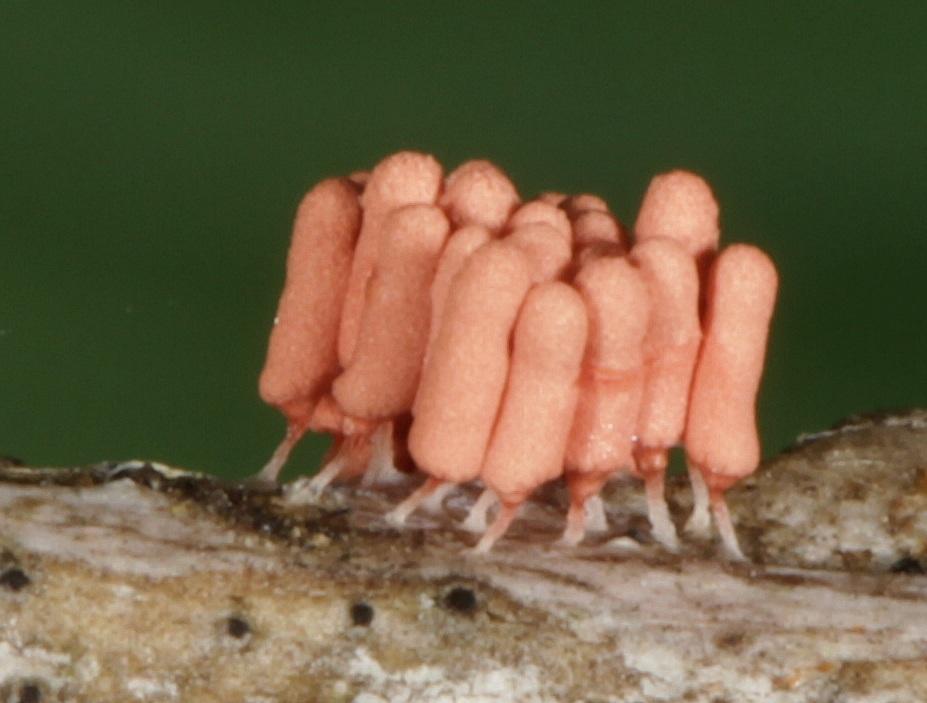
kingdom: Protozoa
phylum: Mycetozoa
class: Myxomycetes
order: Trichiales
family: Arcyriaceae
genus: Arcyria
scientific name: Arcyria denudata
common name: Carnival candy slime mold
